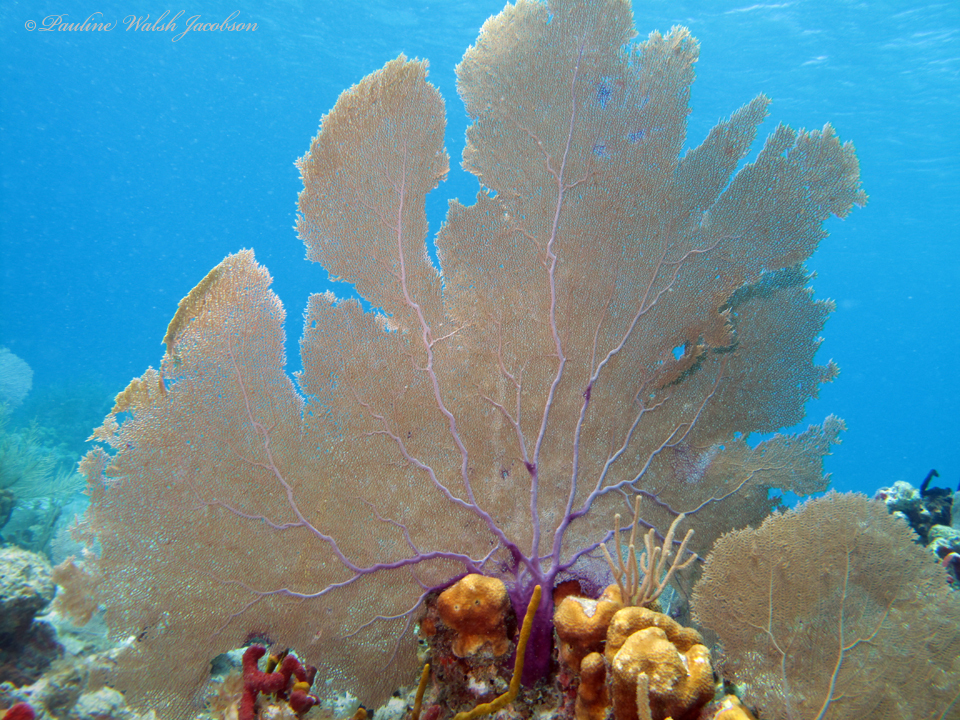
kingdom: Animalia
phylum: Cnidaria
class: Anthozoa
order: Malacalcyonacea
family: Gorgoniidae
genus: Gorgonia
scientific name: Gorgonia ventalina
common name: Common sea fan
